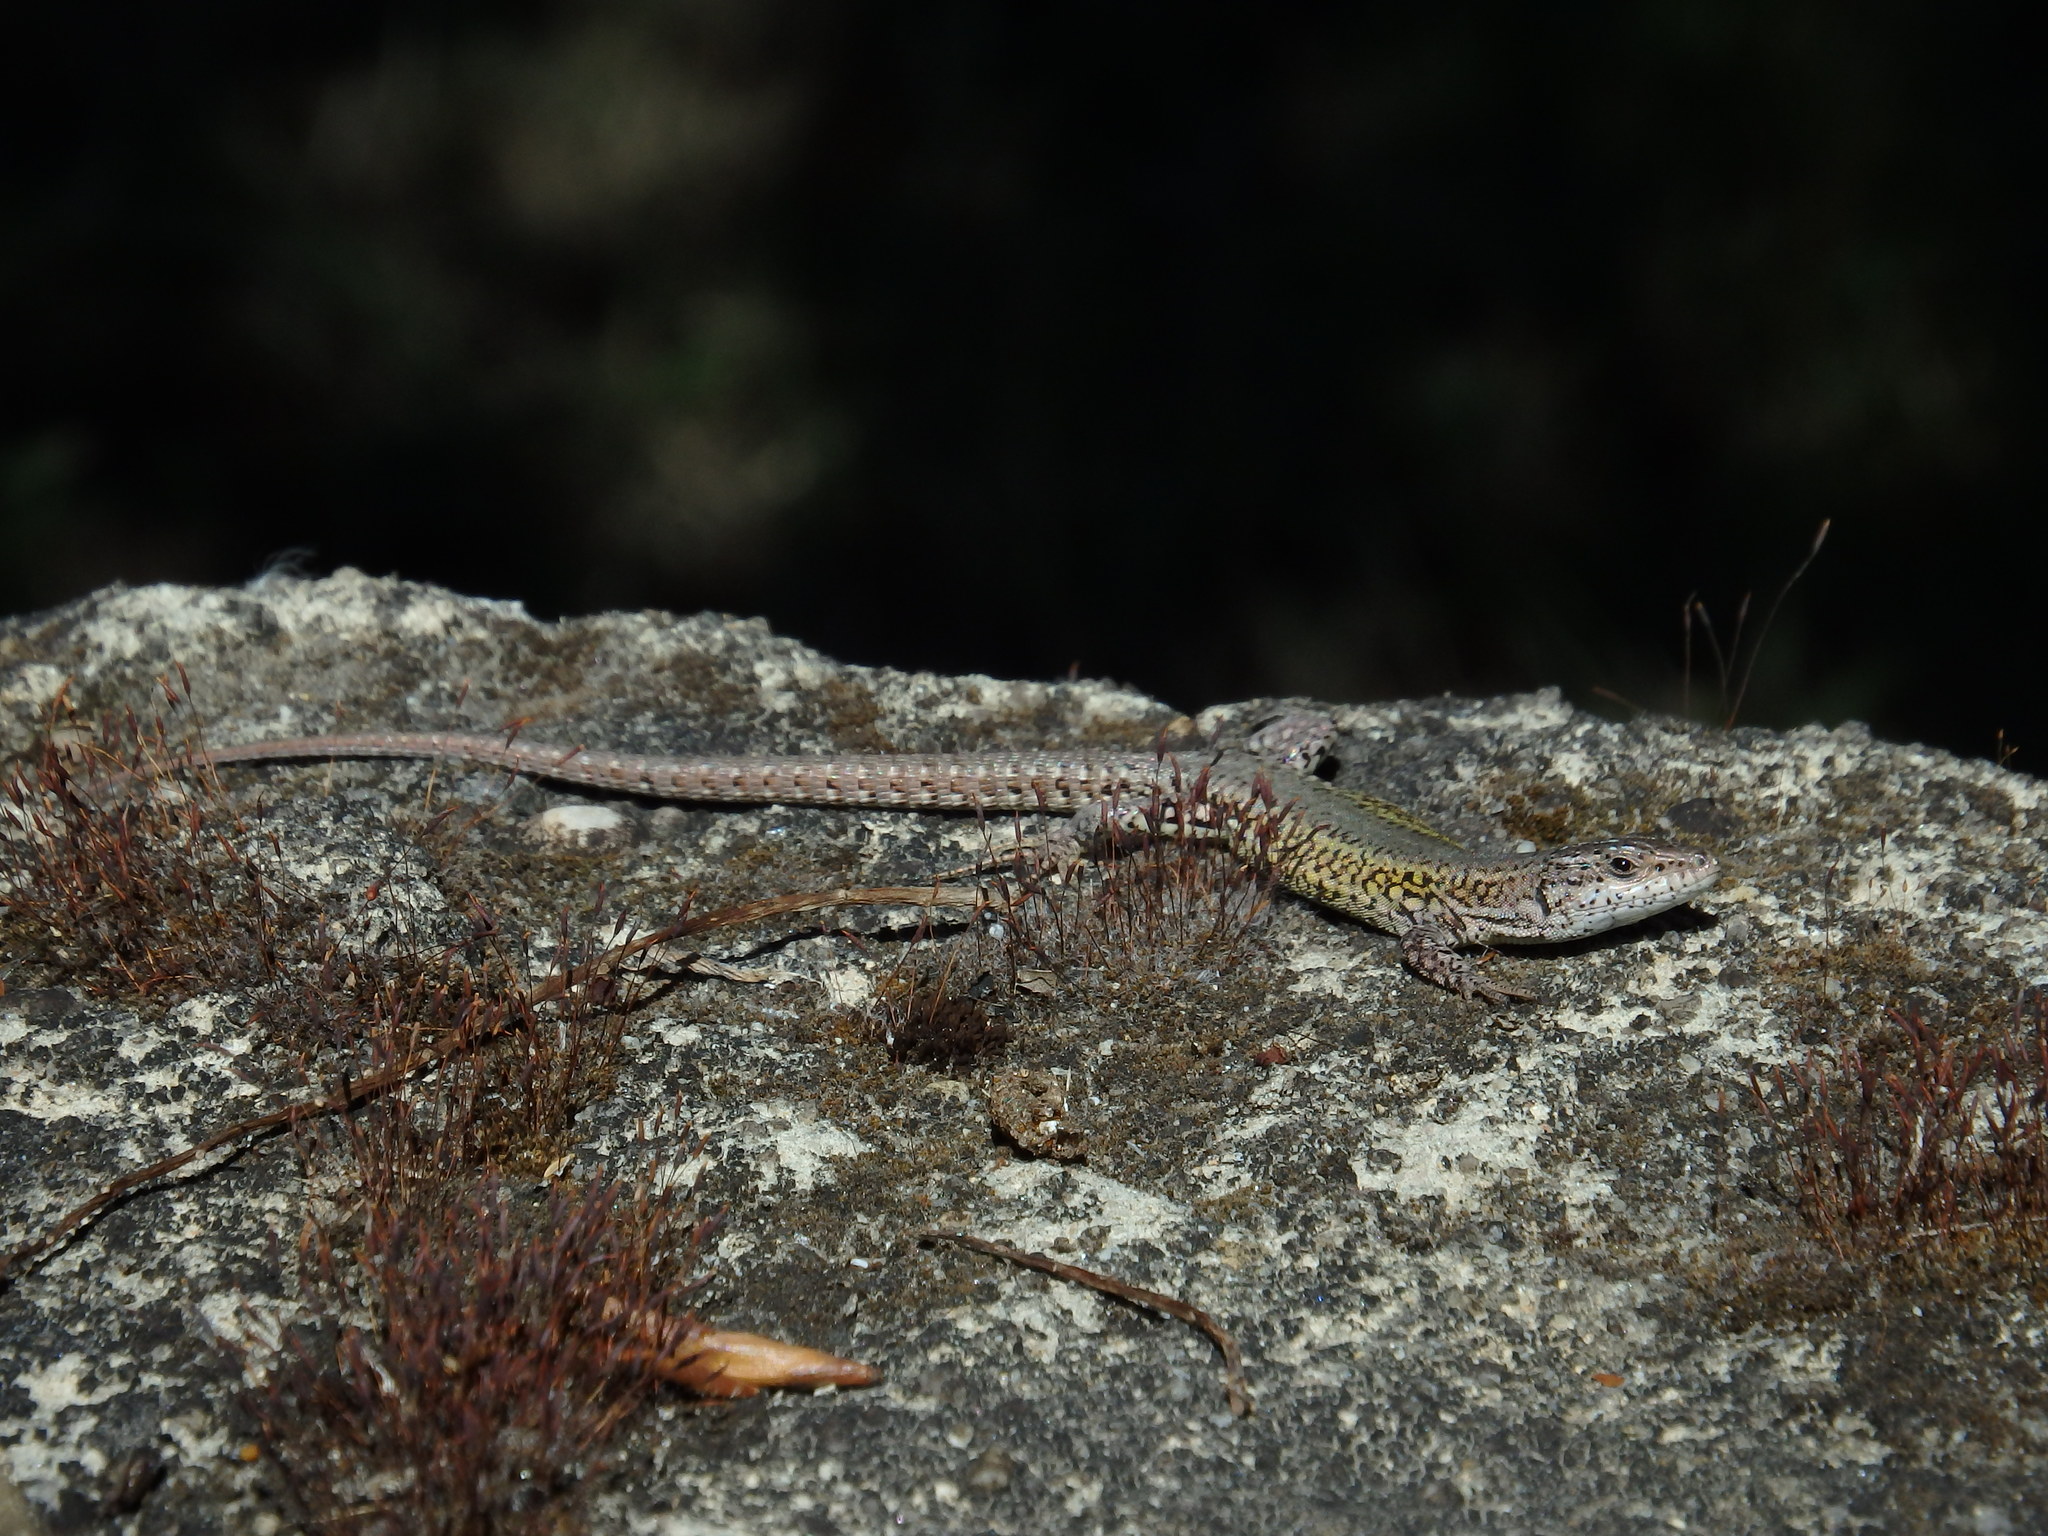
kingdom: Animalia
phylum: Chordata
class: Squamata
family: Lacertidae
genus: Podarcis
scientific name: Podarcis carbonelli
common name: Carbonelli's wall lizard
